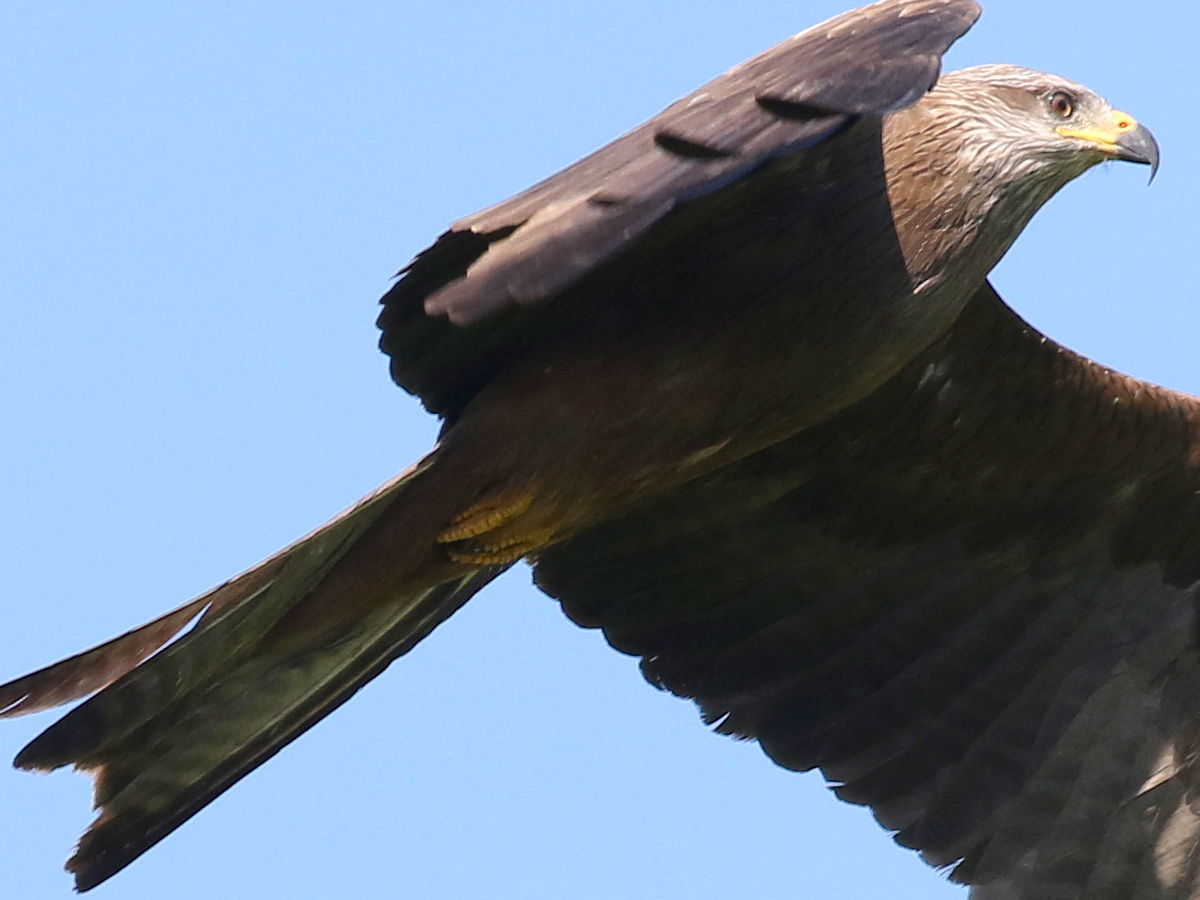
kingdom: Animalia
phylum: Chordata
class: Aves
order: Accipitriformes
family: Accipitridae
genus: Milvus
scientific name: Milvus migrans
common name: Black kite
